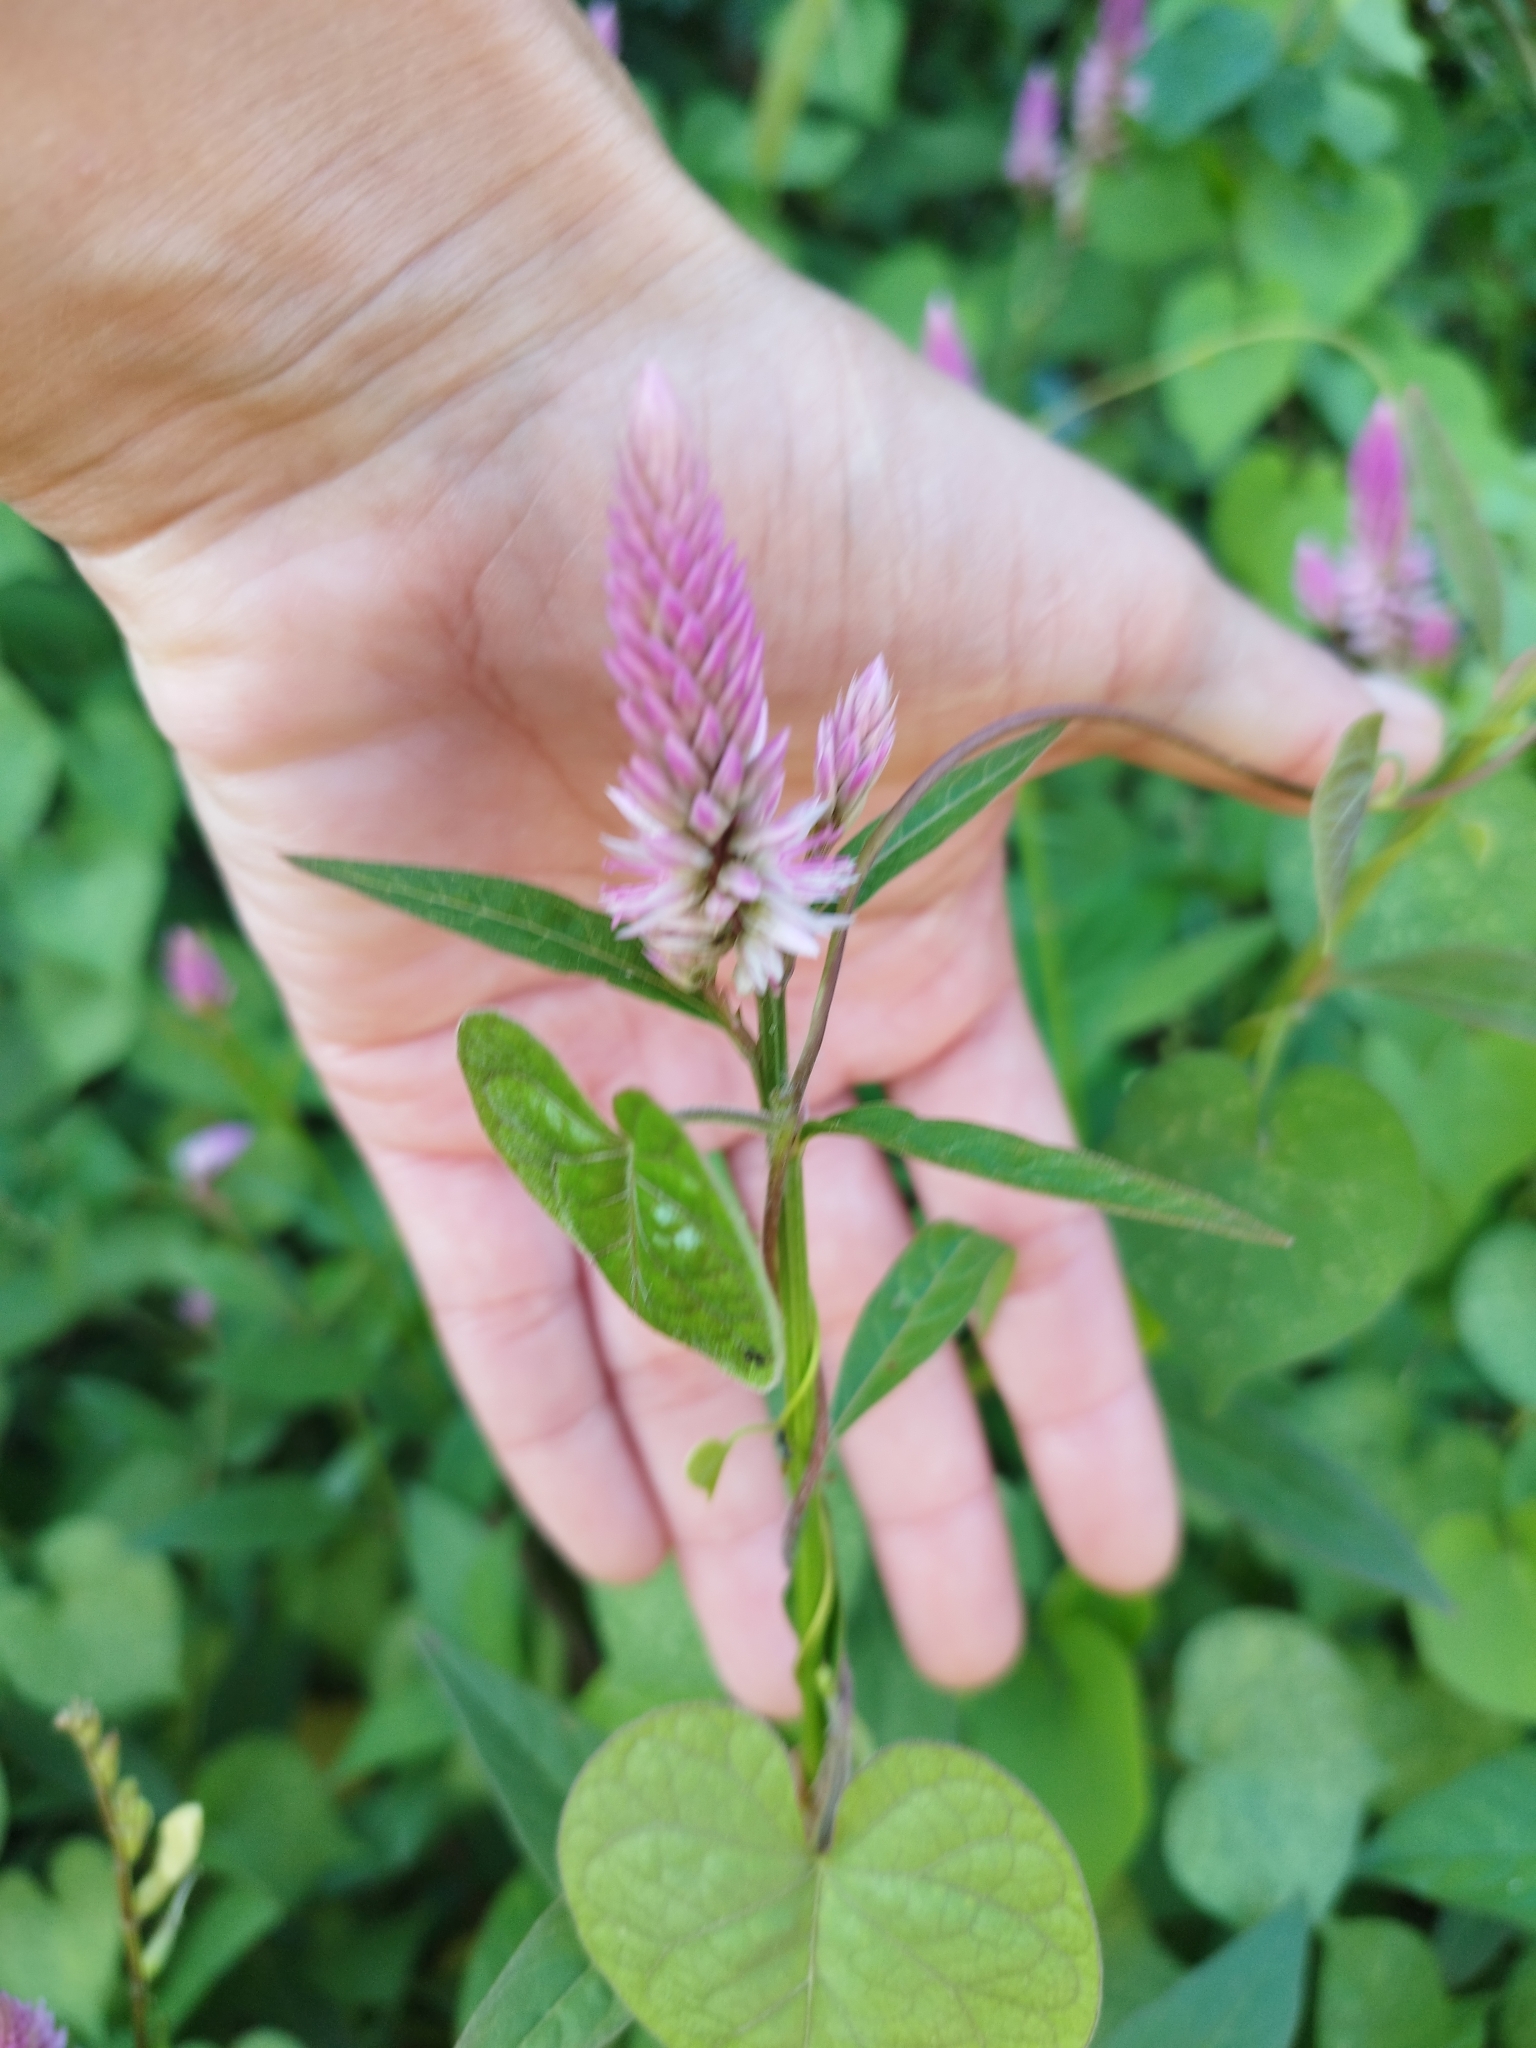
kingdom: Plantae
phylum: Tracheophyta
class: Magnoliopsida
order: Caryophyllales
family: Amaranthaceae
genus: Celosia
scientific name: Celosia argentea
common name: Feather cockscomb
